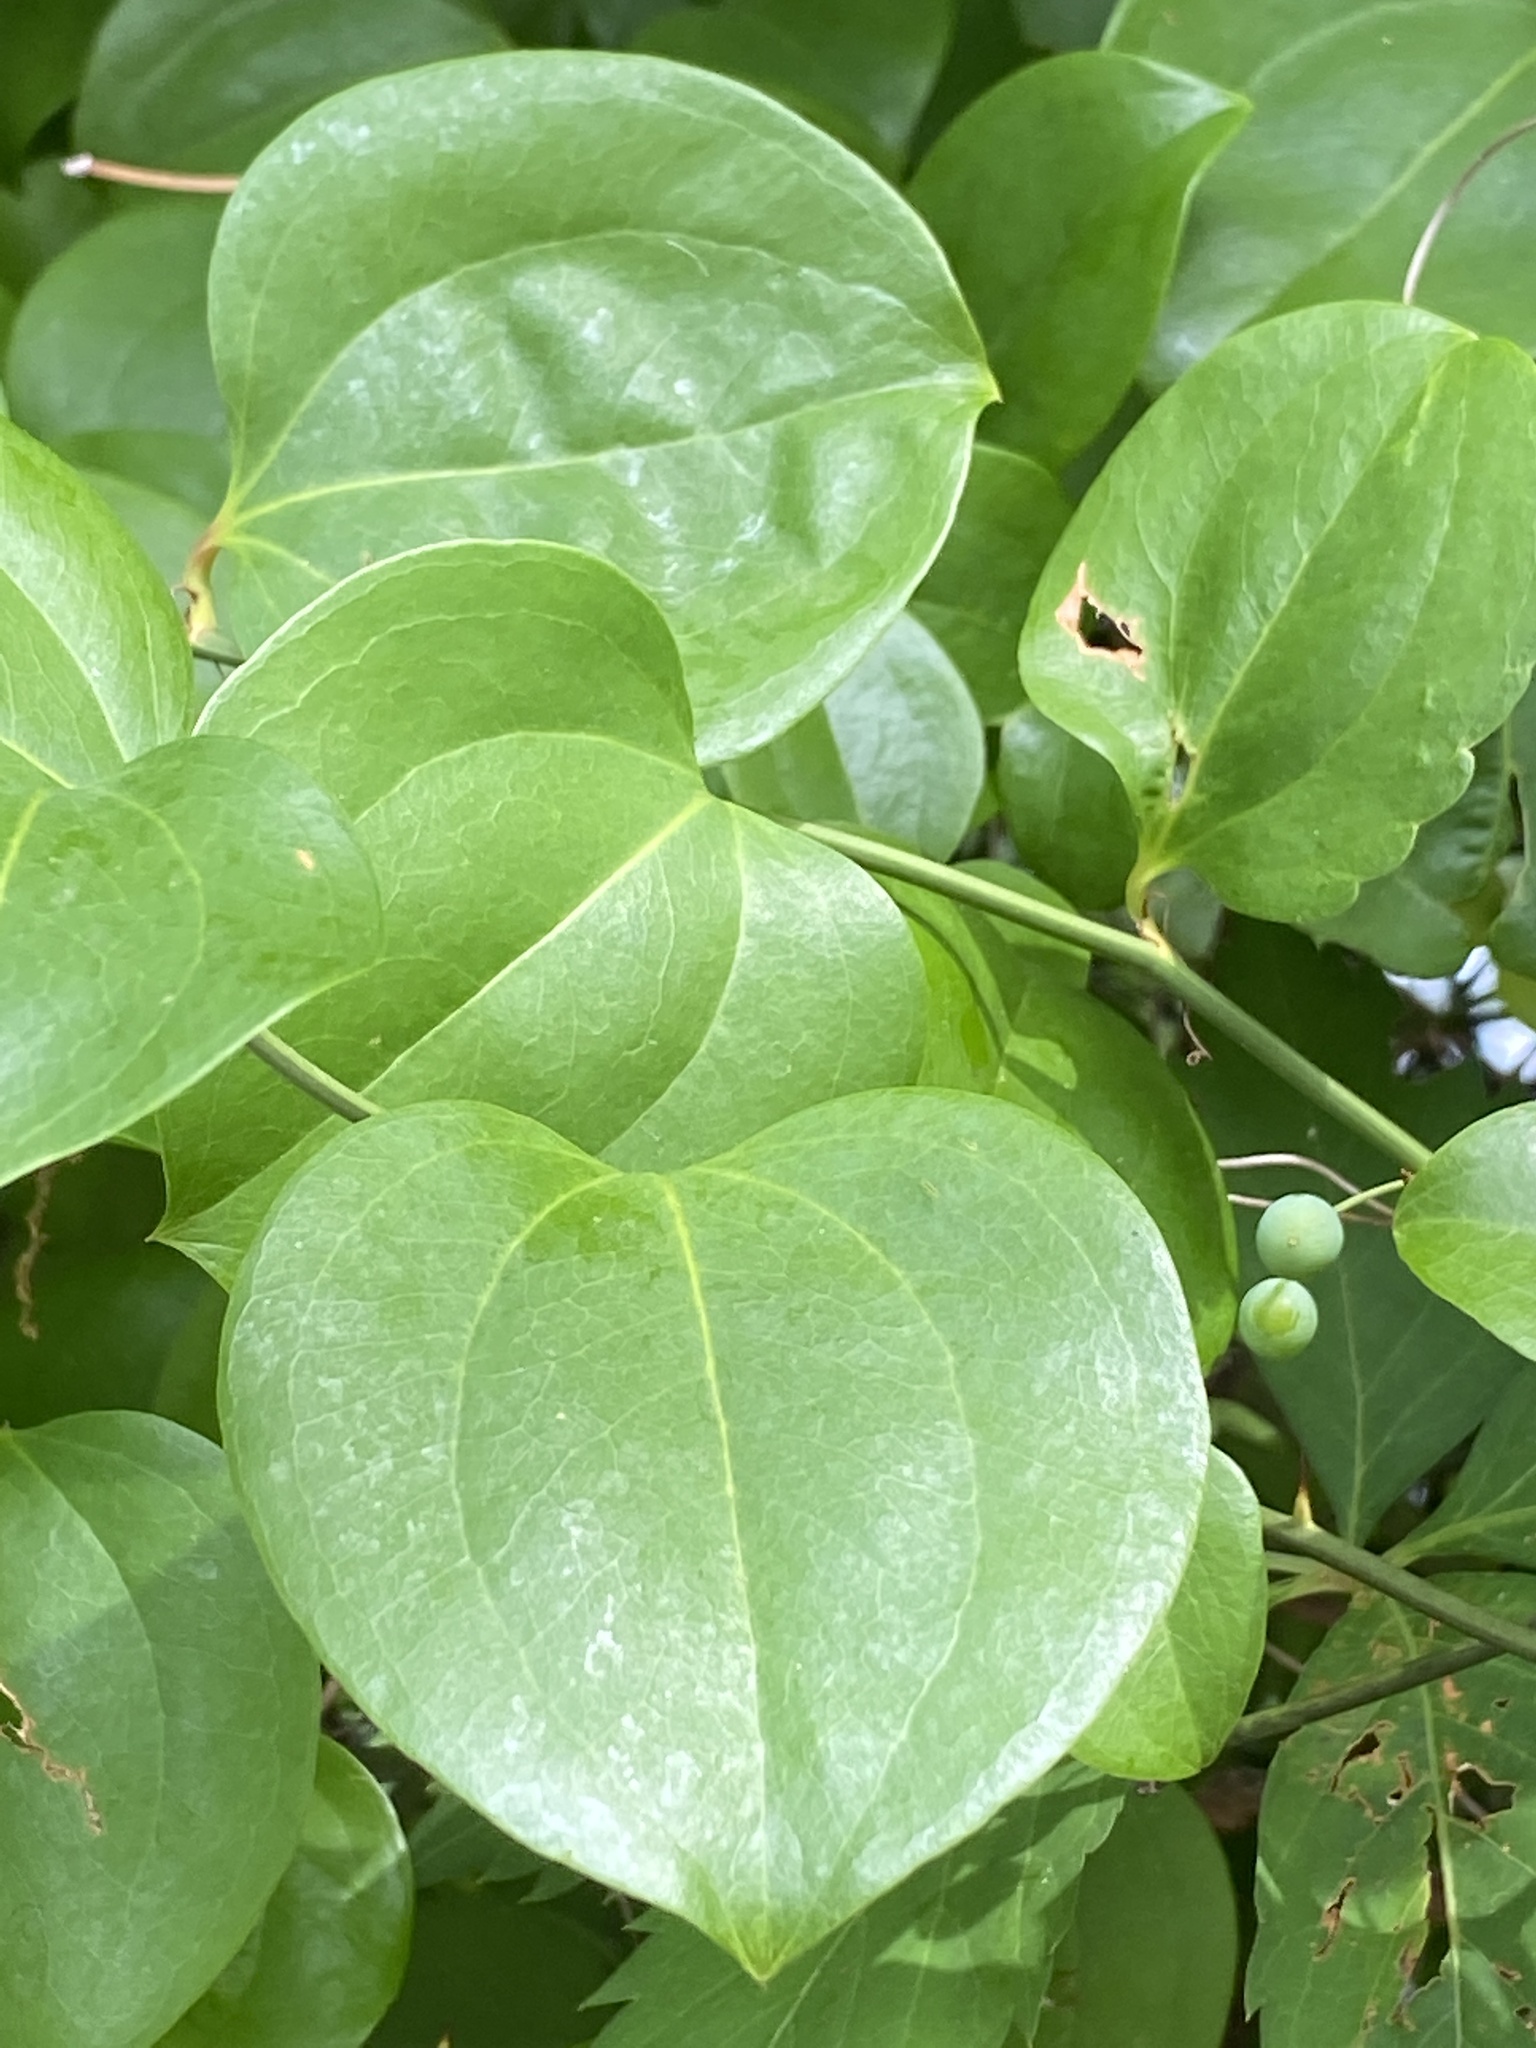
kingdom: Plantae
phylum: Tracheophyta
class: Liliopsida
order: Liliales
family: Smilacaceae
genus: Smilax
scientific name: Smilax rotundifolia
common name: Bullbriar
